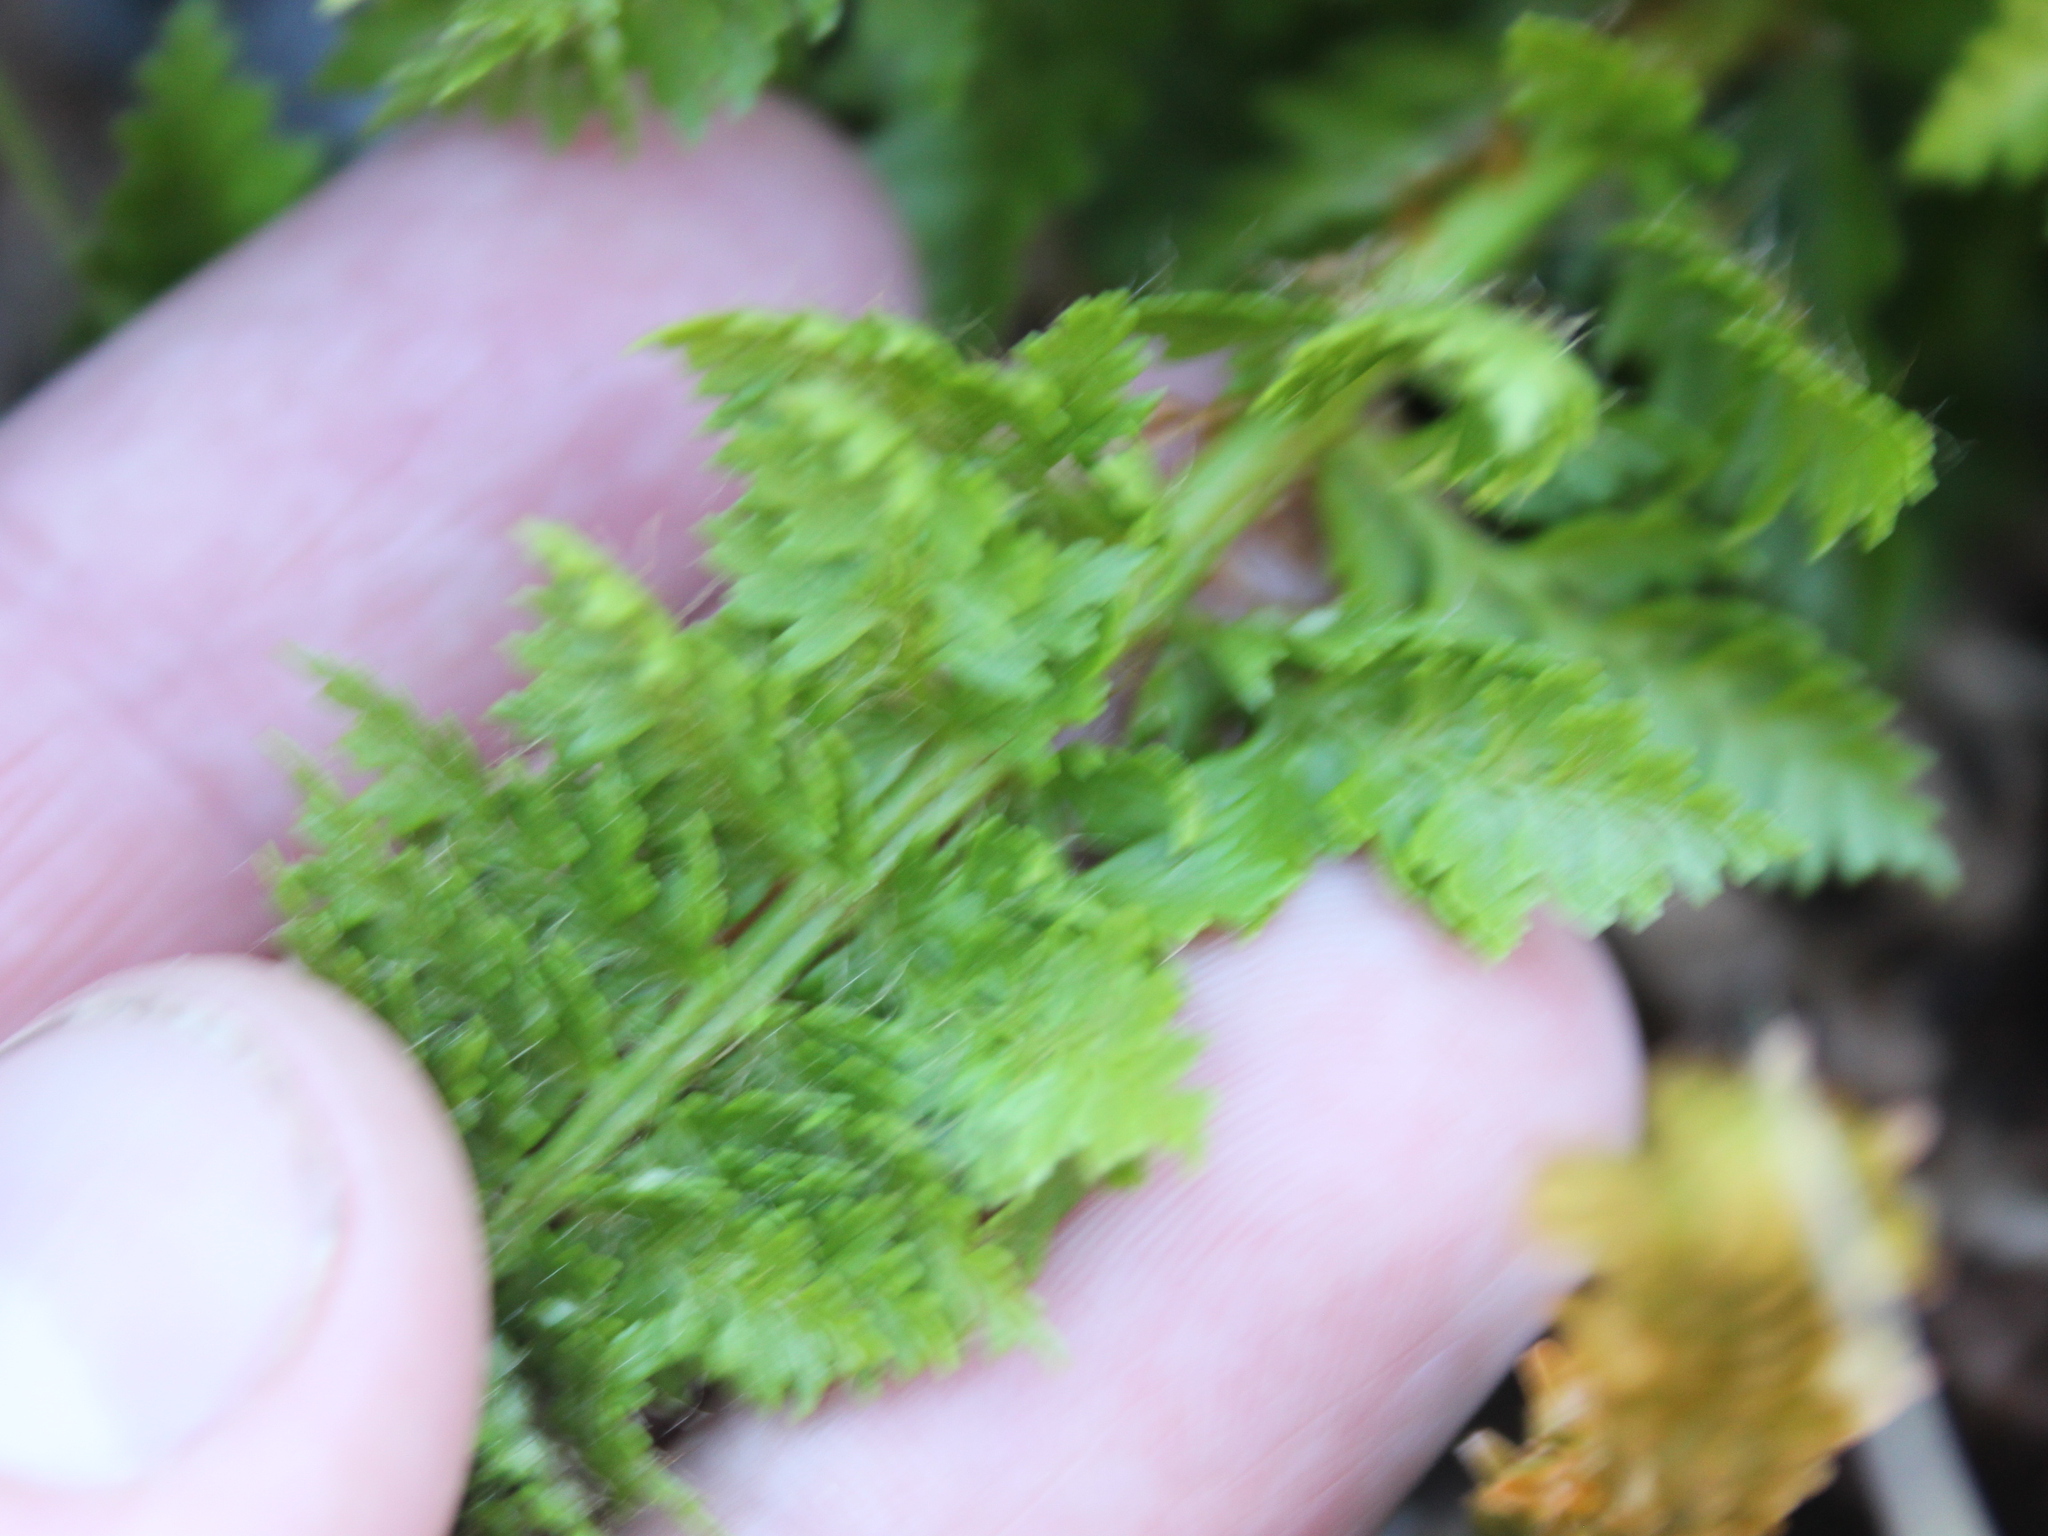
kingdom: Plantae
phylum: Tracheophyta
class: Polypodiopsida
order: Polypodiales
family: Dryopteridaceae
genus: Polystichum
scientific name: Polystichum cystostegia
